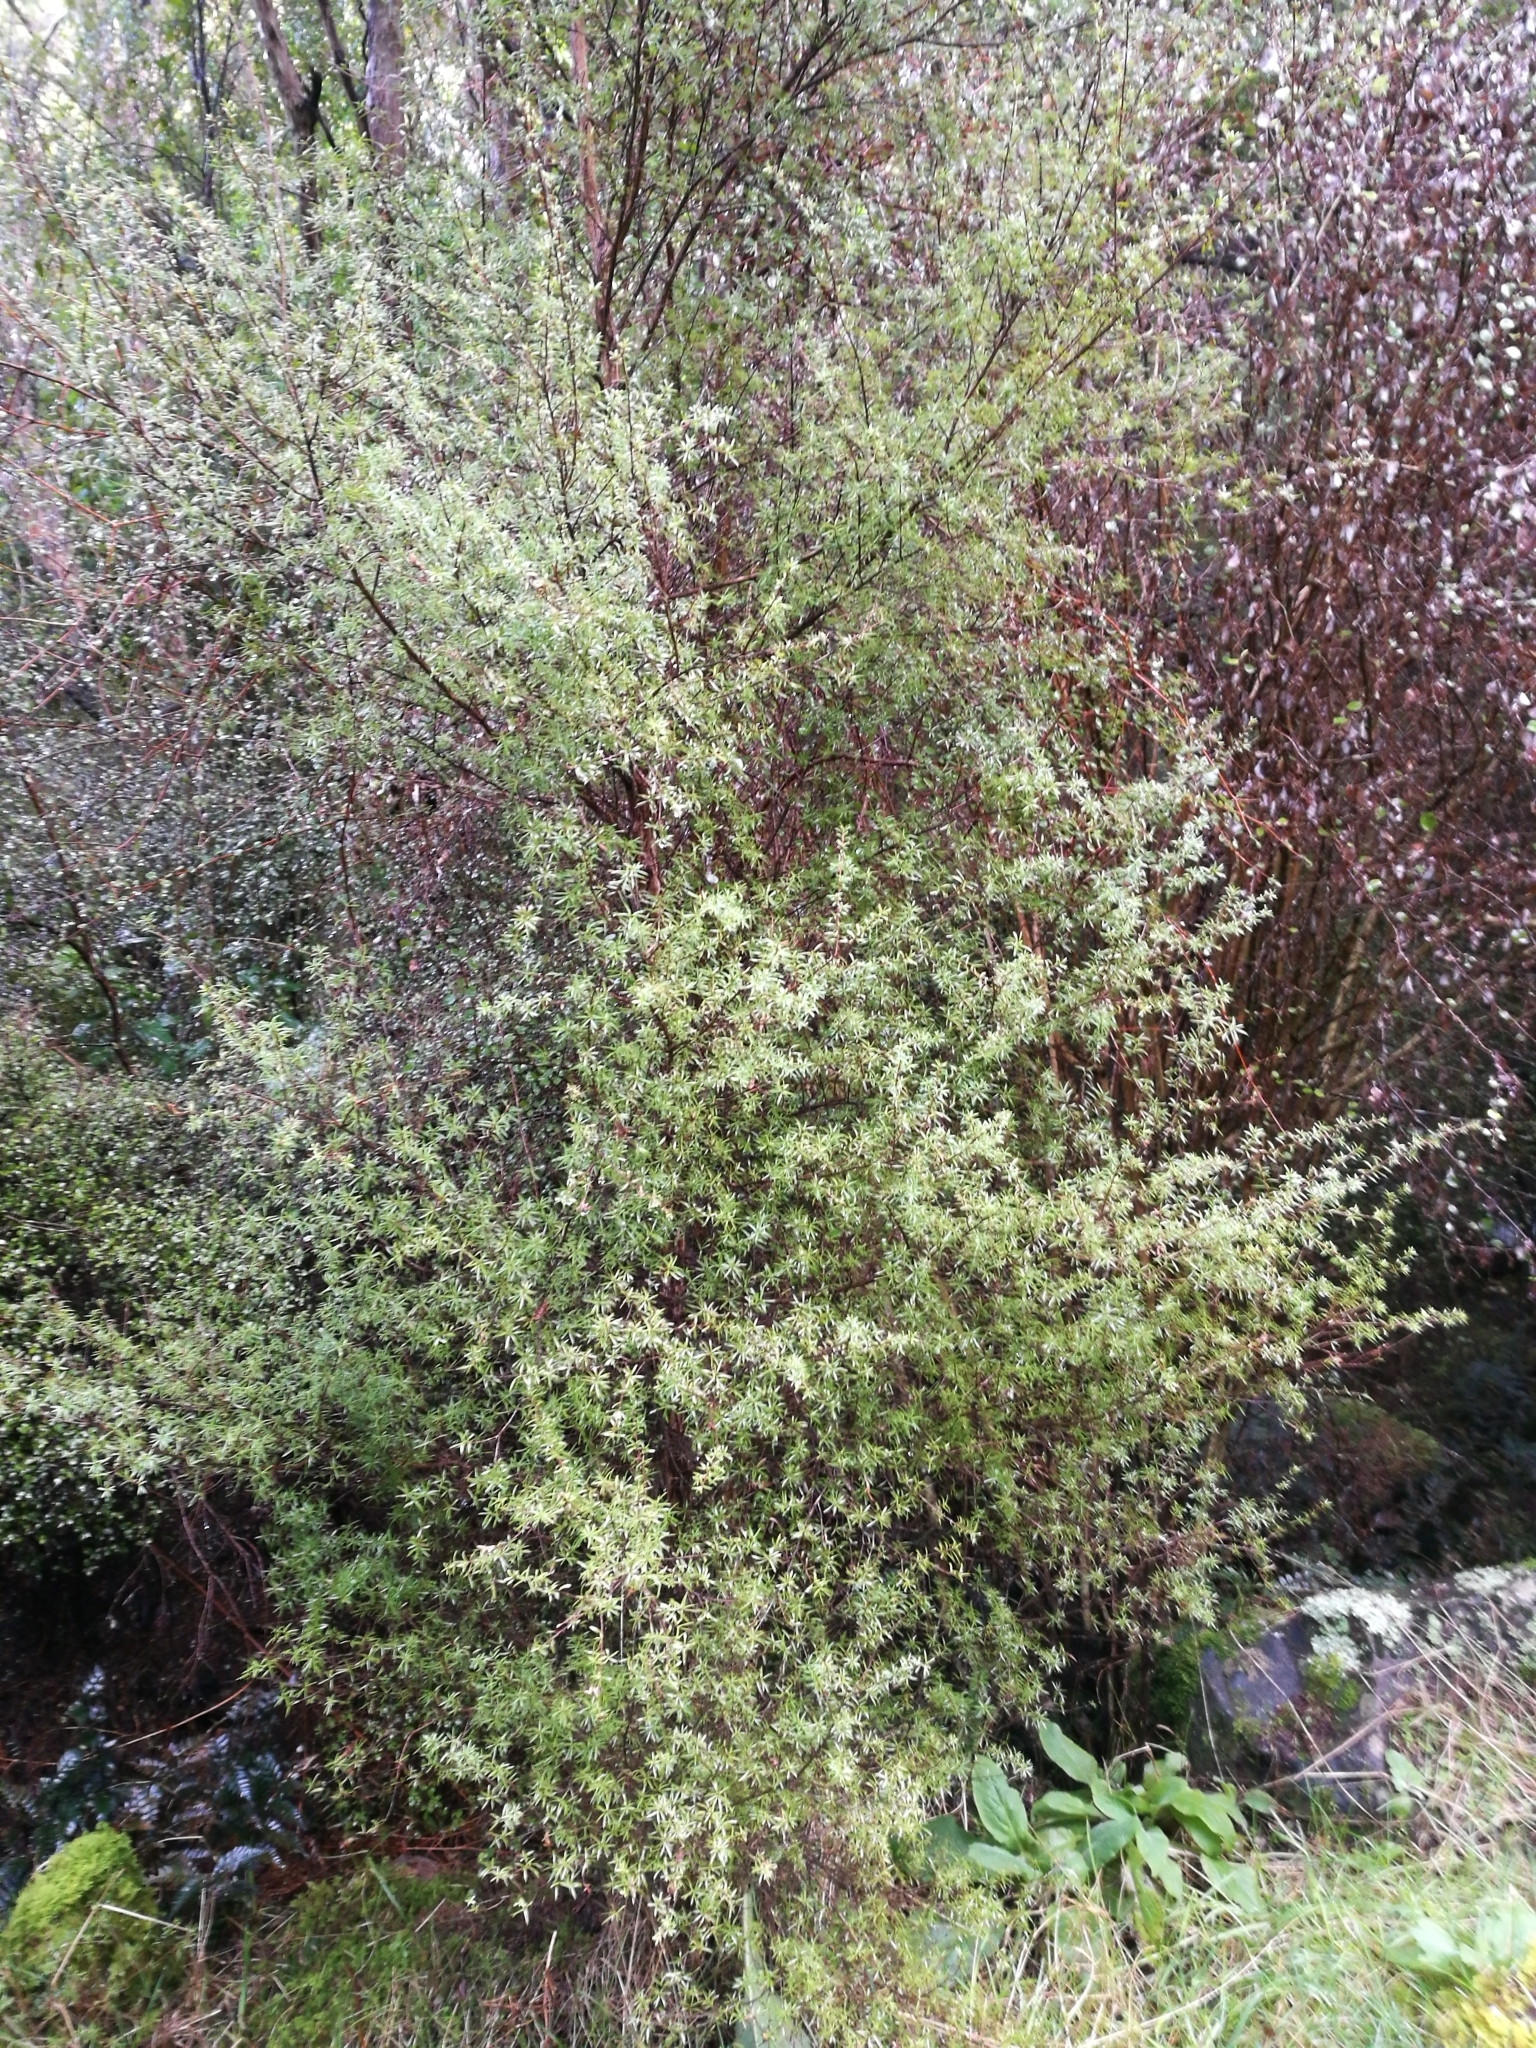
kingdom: Plantae
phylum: Tracheophyta
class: Magnoliopsida
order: Myrtales
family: Myrtaceae
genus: Kunzea
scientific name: Kunzea robusta
